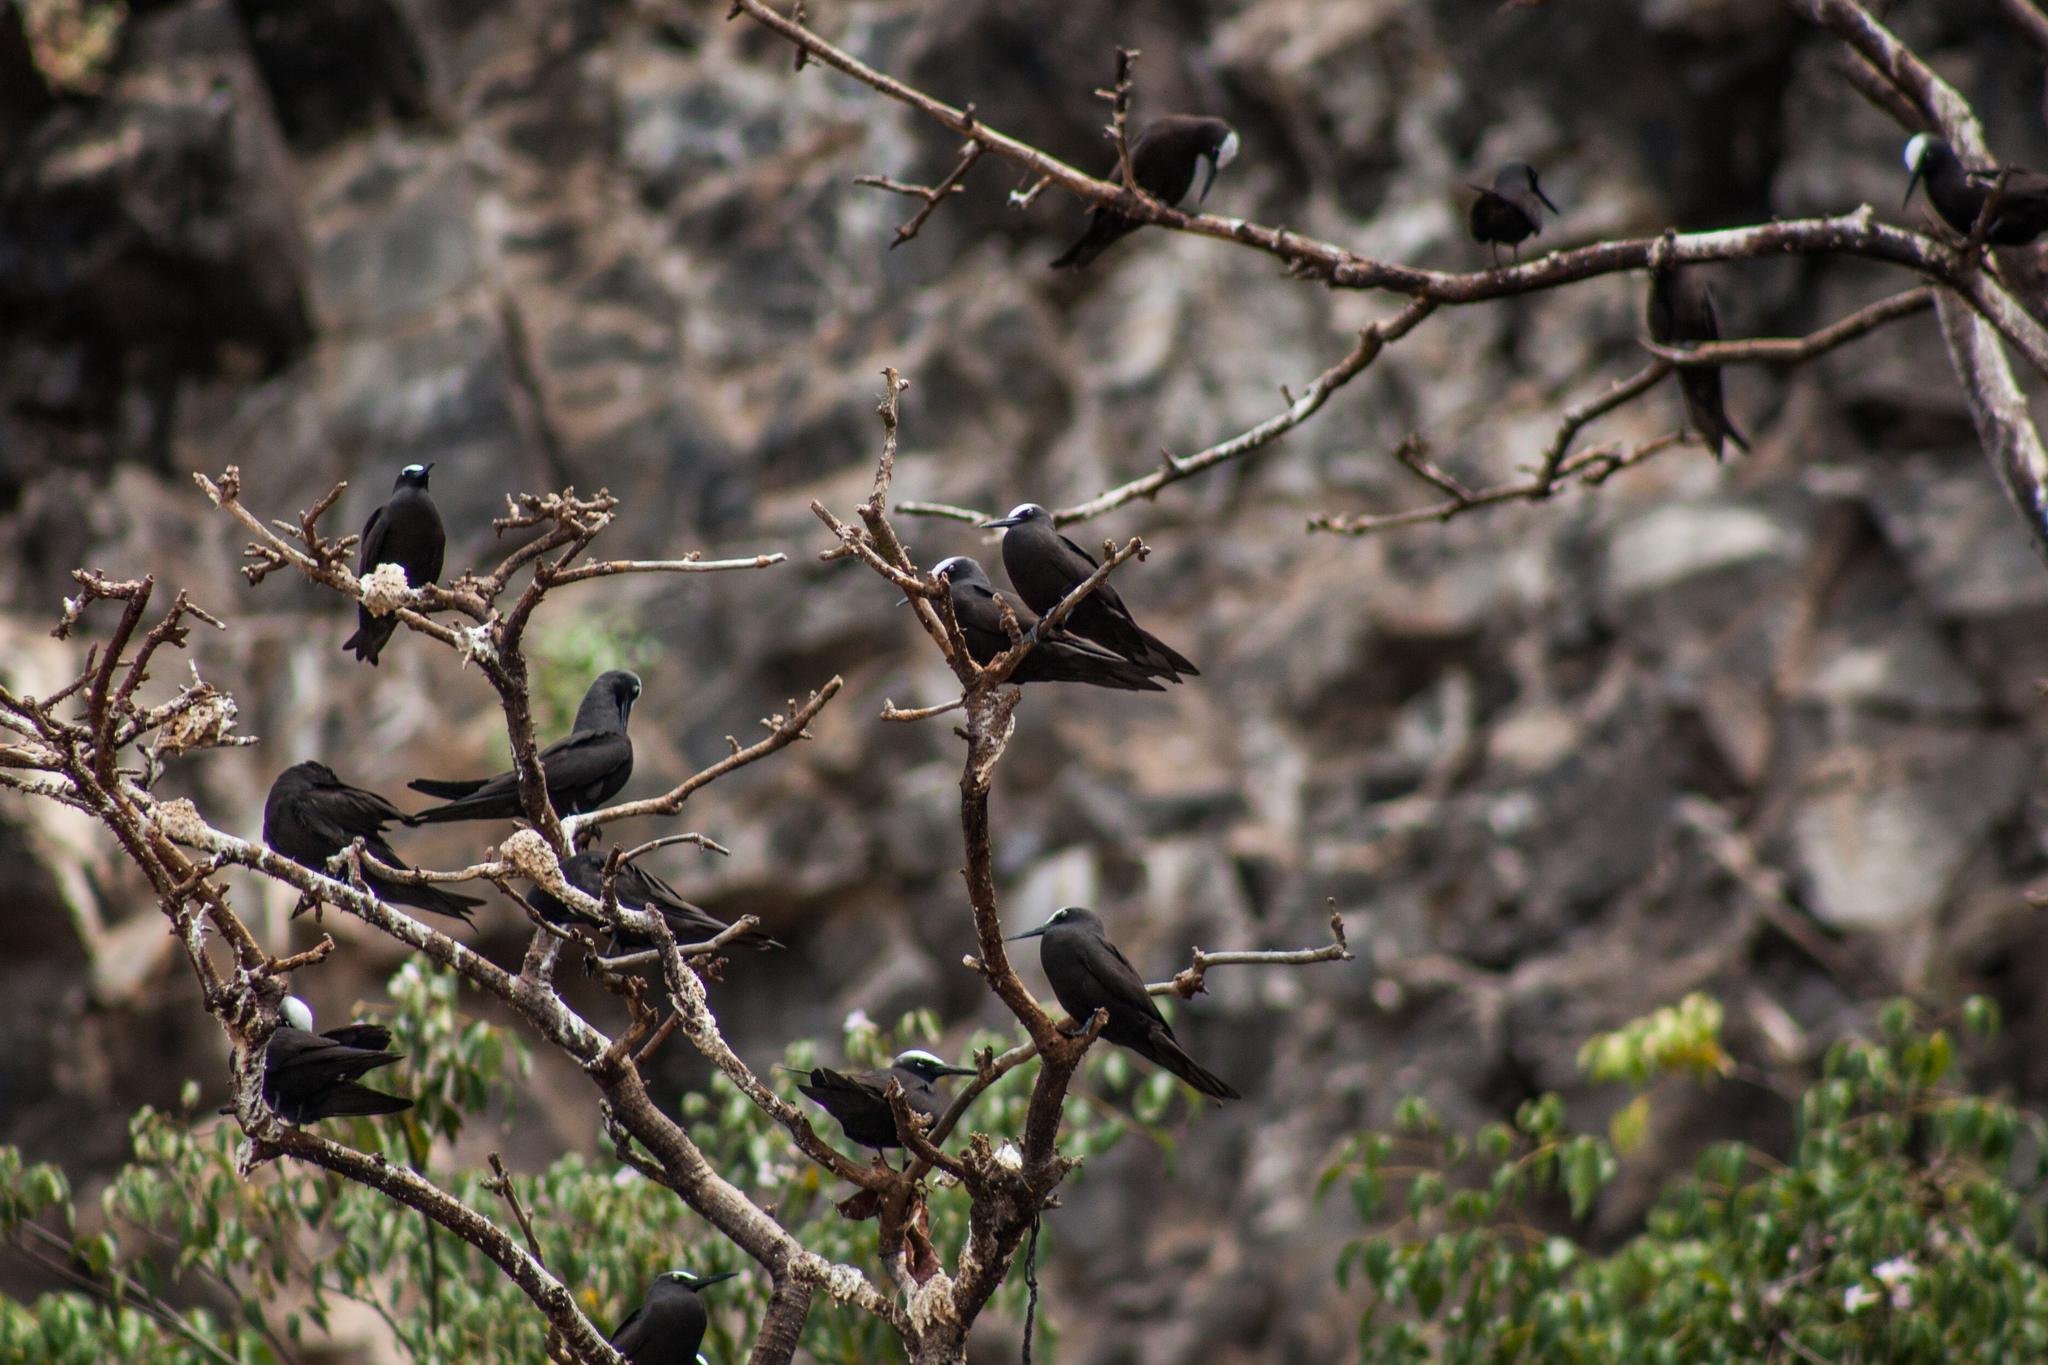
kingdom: Animalia
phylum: Chordata
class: Aves
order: Charadriiformes
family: Laridae
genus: Anous
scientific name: Anous minutus
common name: Black noddy
